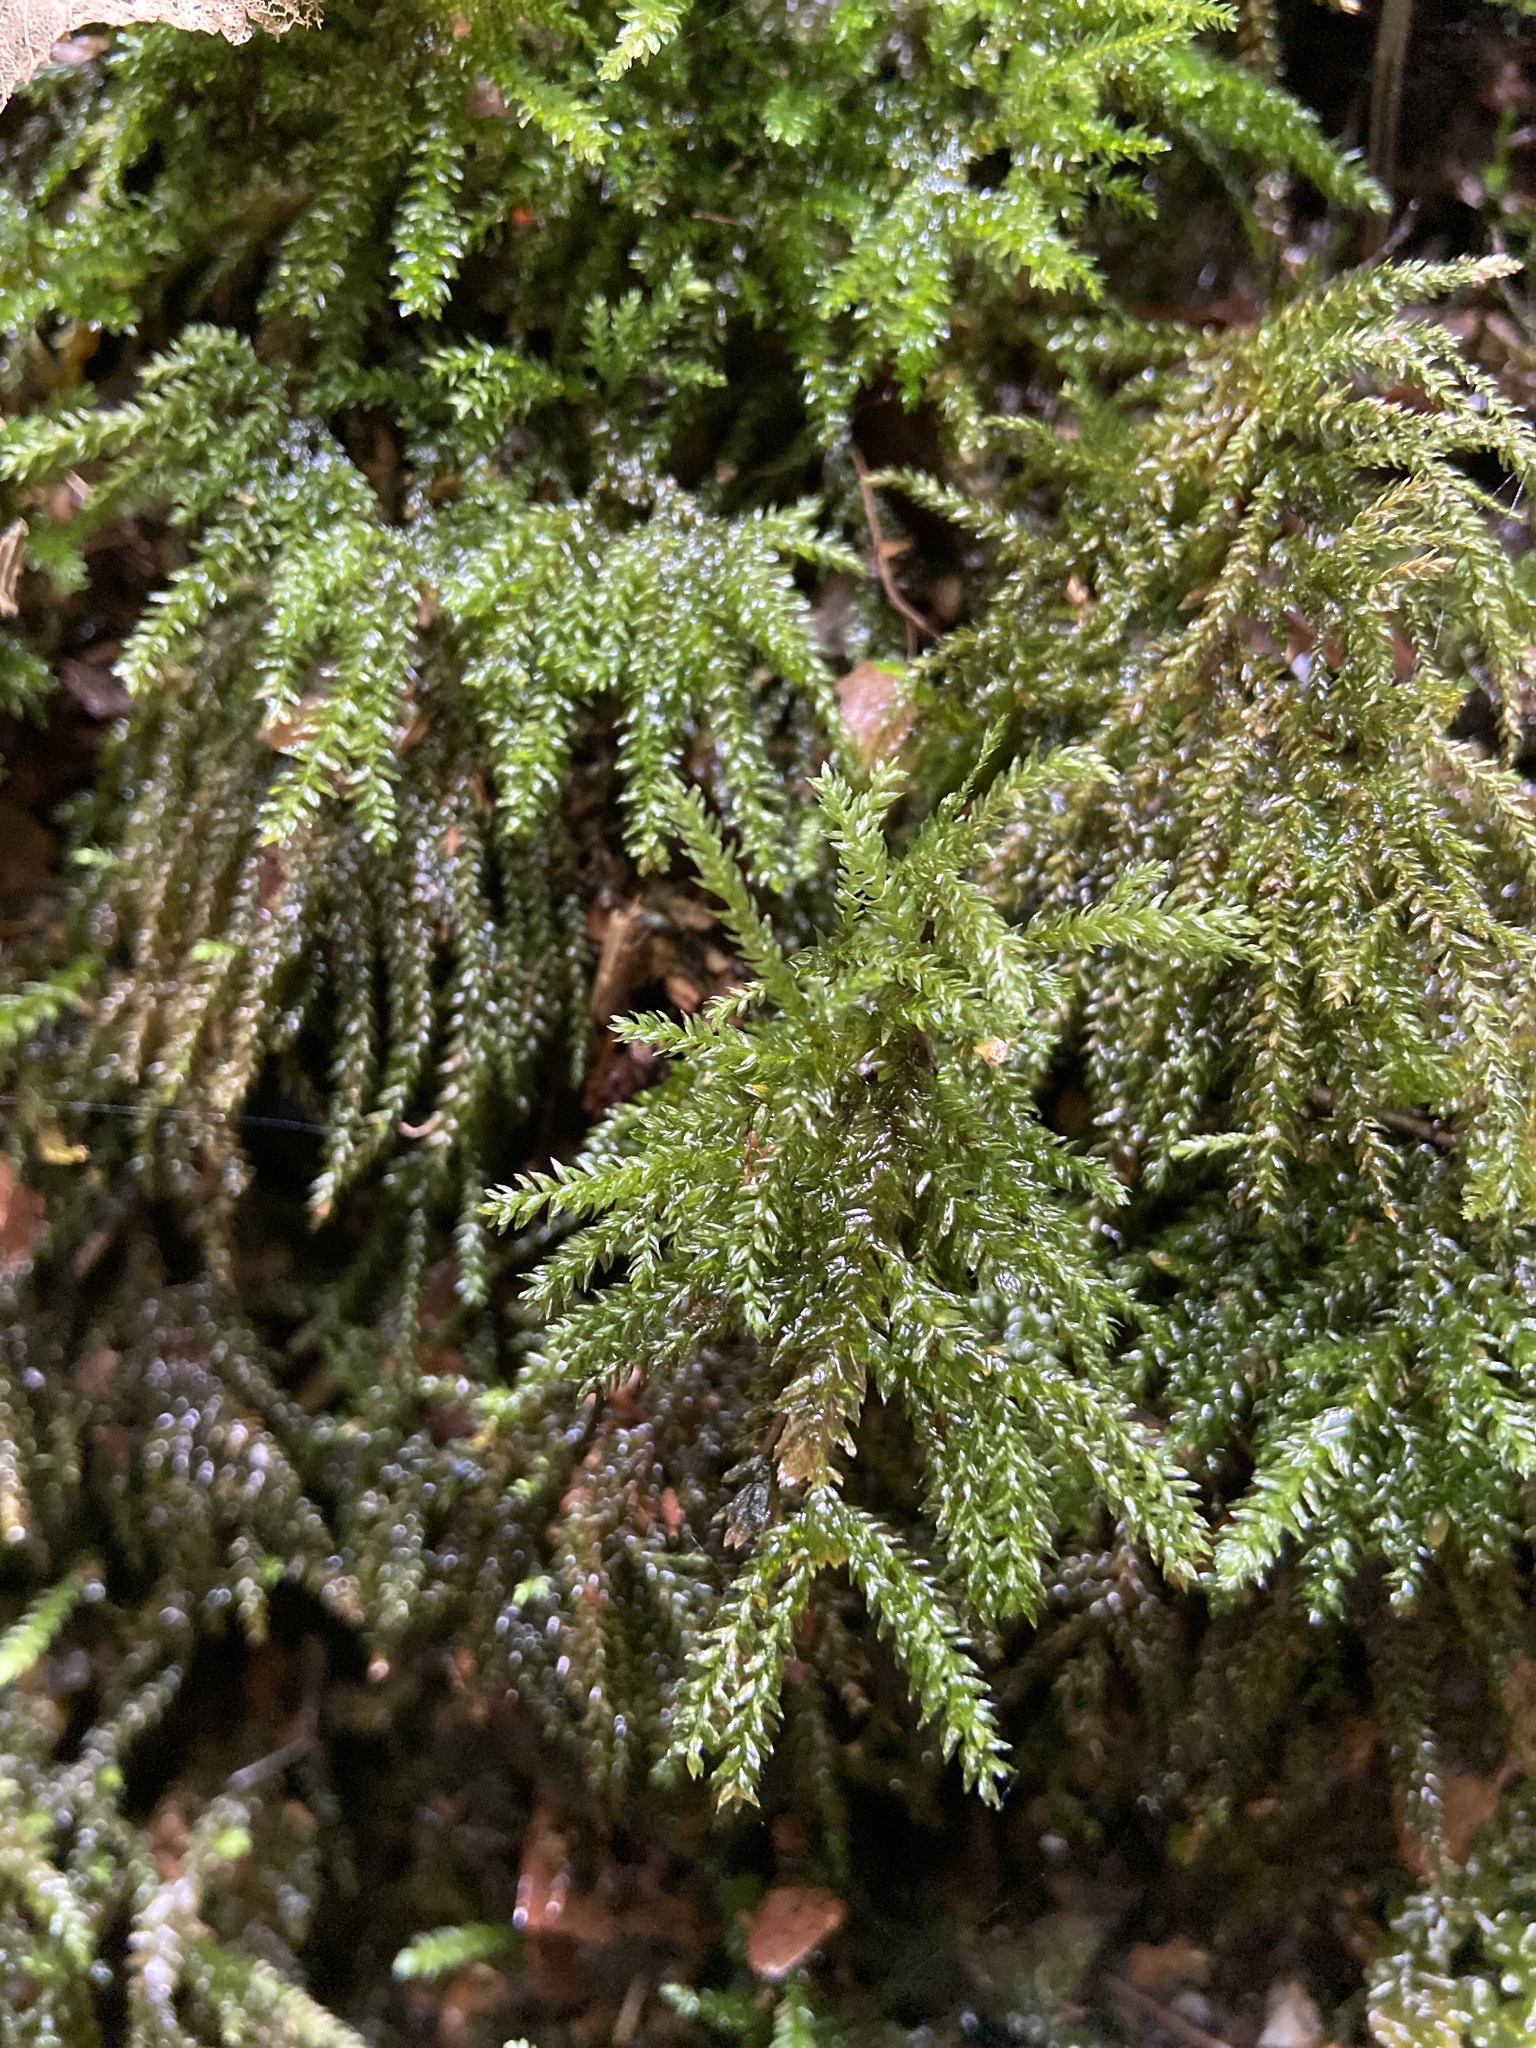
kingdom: Plantae
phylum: Bryophyta
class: Bryopsida
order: Hypnales
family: Neckeraceae
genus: Thamnobryum
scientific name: Thamnobryum alopecurum
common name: Fox-tail feather-moss
